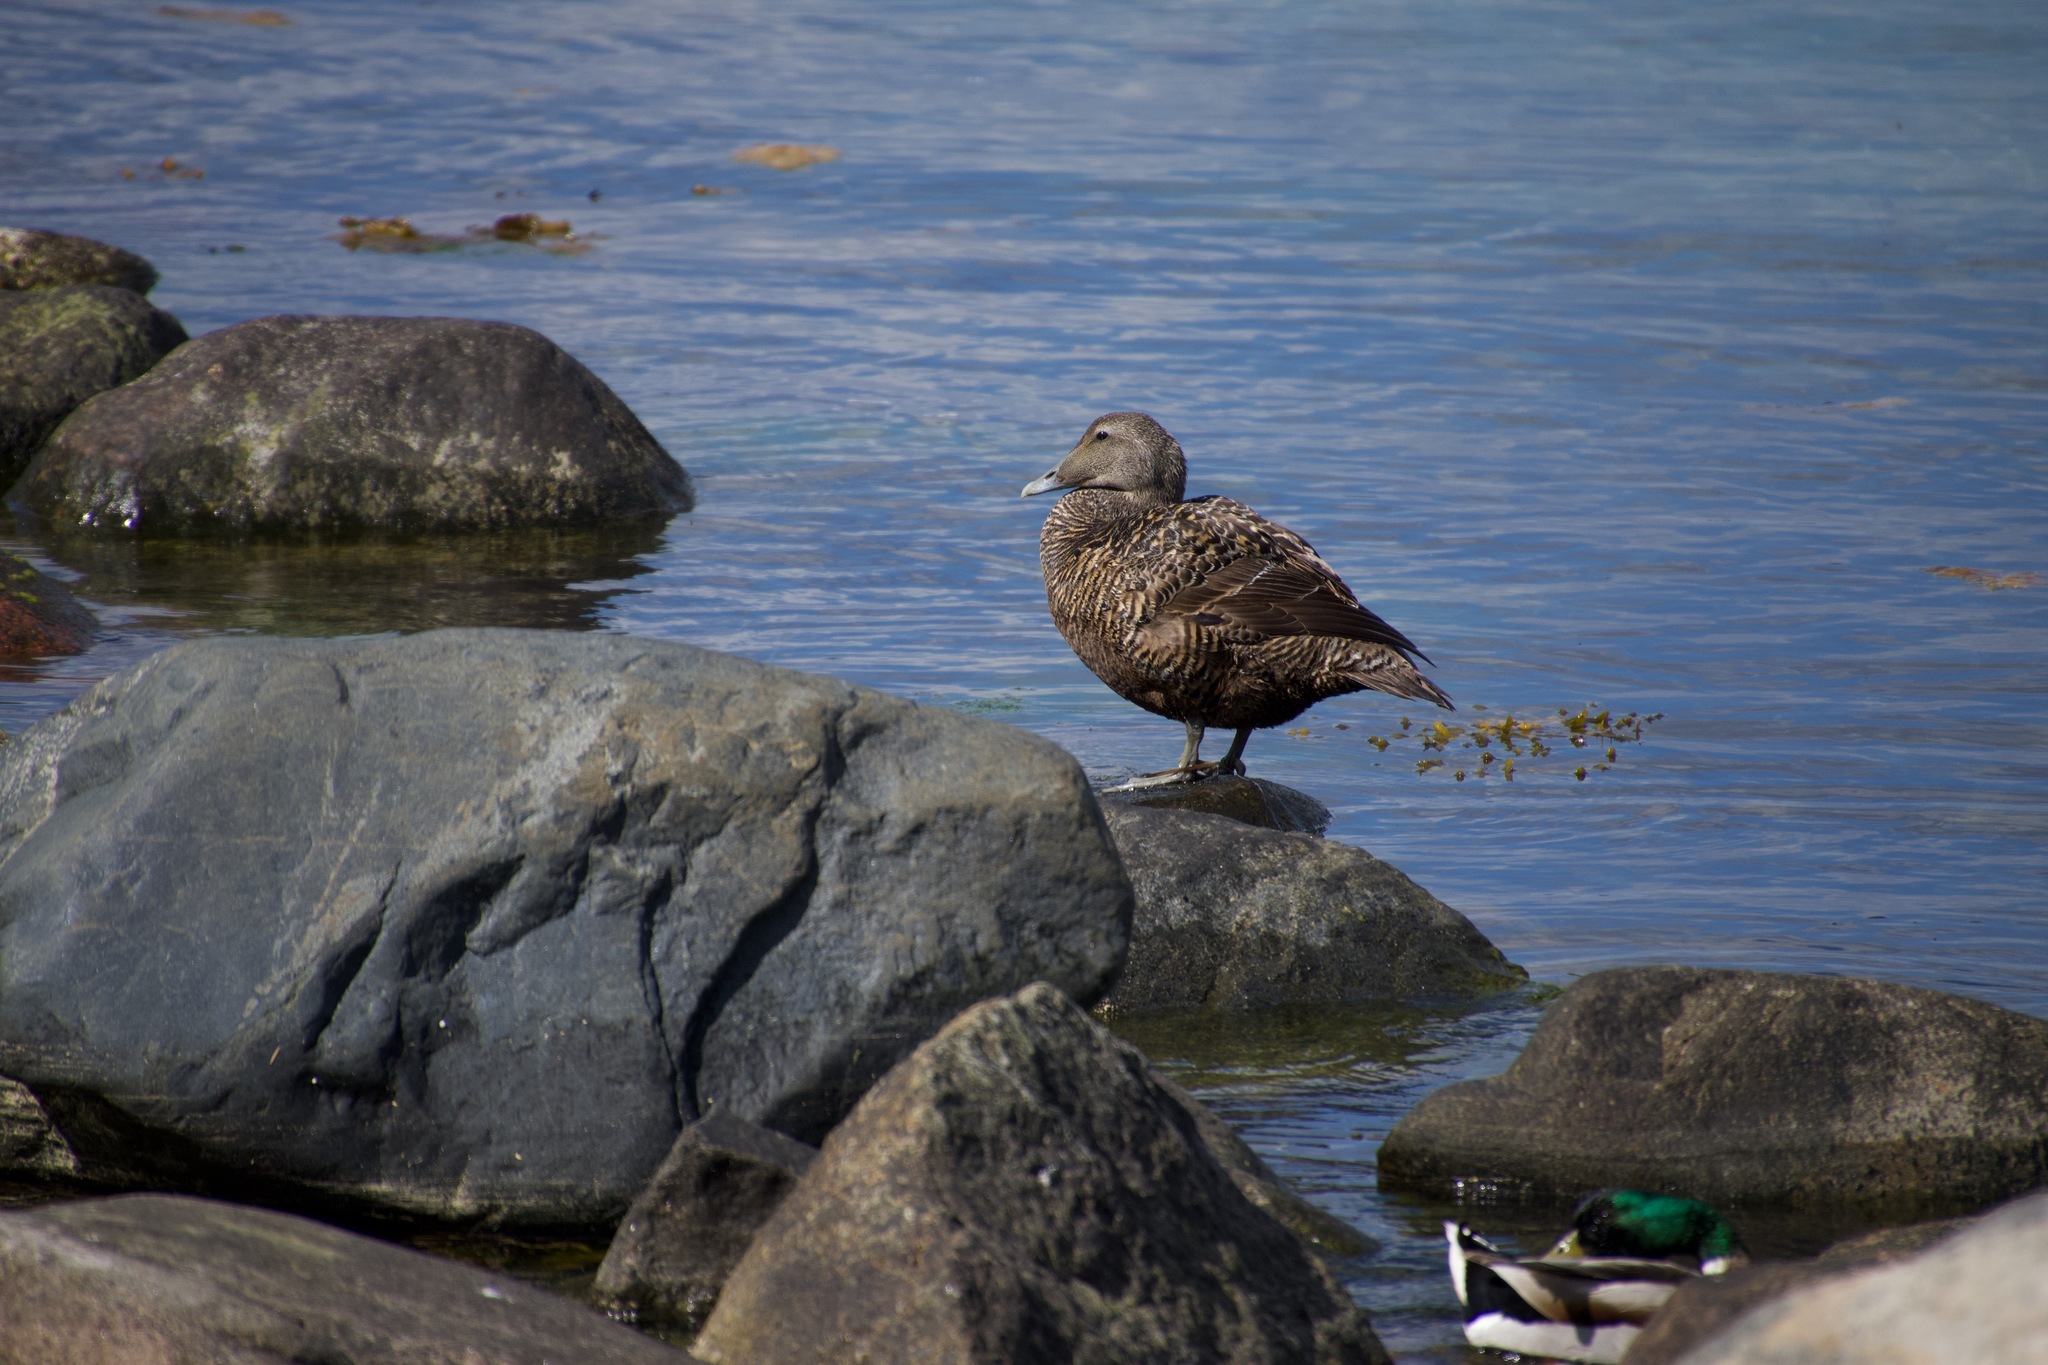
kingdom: Animalia
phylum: Chordata
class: Aves
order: Anseriformes
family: Anatidae
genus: Somateria
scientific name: Somateria mollissima
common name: Common eider
